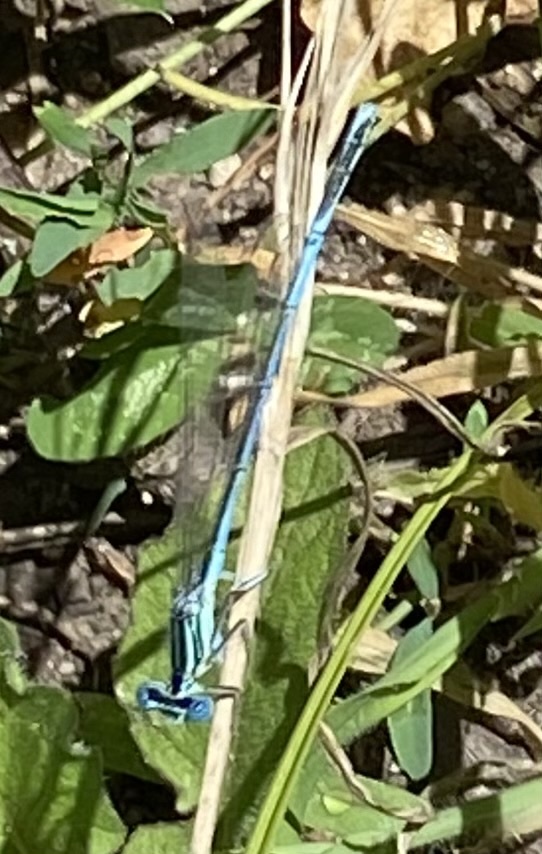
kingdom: Animalia
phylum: Arthropoda
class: Insecta
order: Odonata
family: Platycnemididae
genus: Platycnemis
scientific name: Platycnemis pennipes
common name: White-legged damselfly
